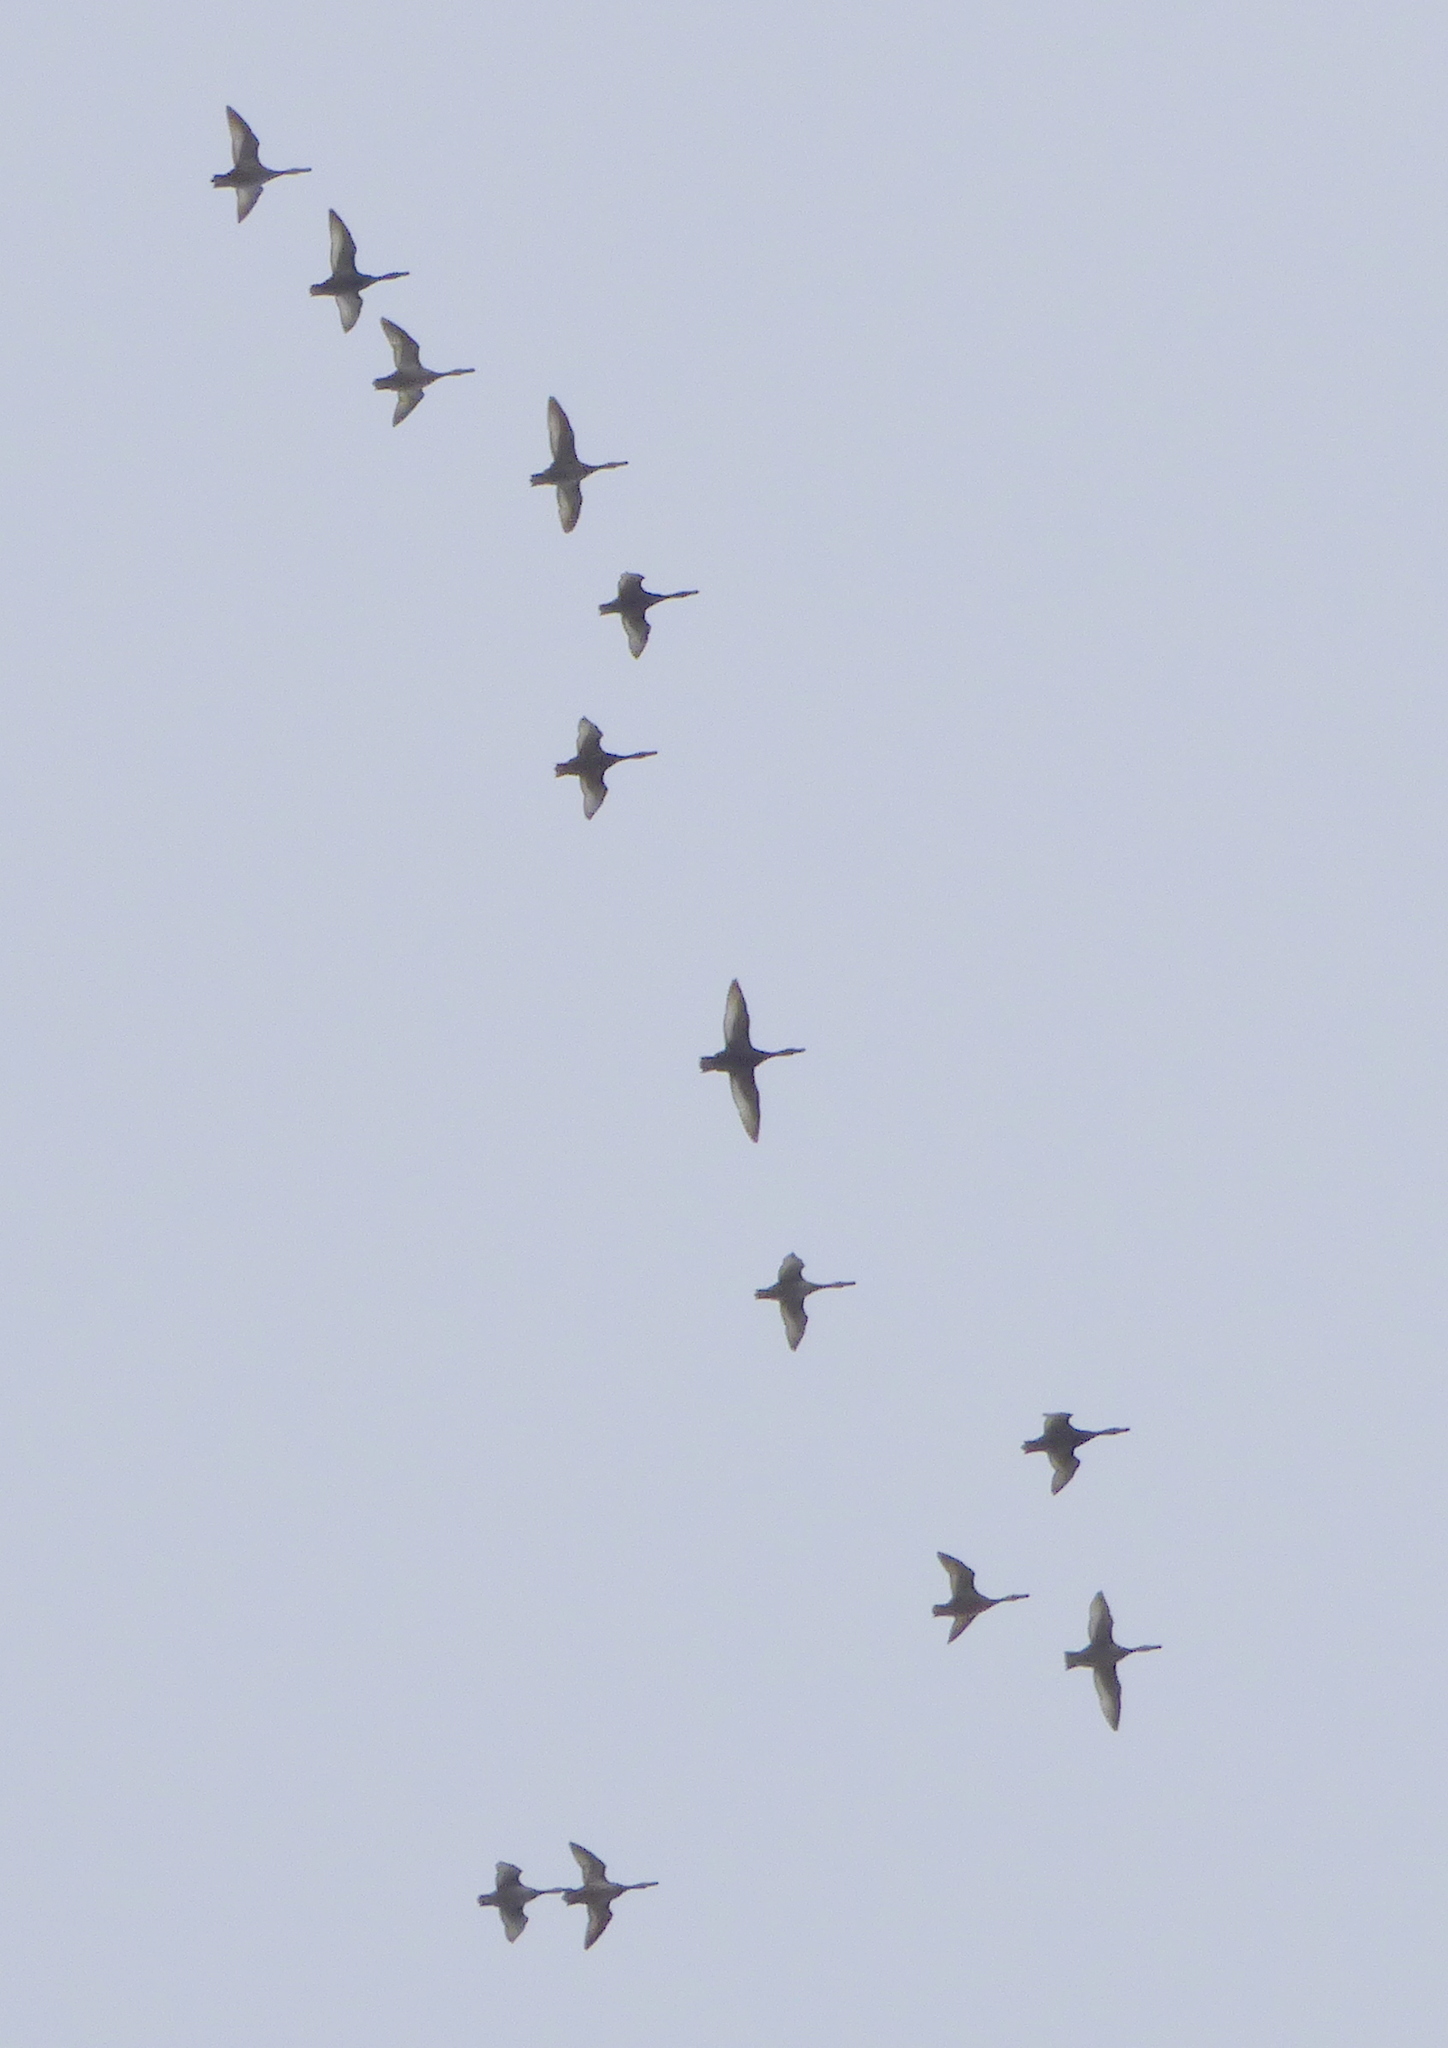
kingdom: Animalia
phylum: Chordata
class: Aves
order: Anseriformes
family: Anatidae
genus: Netta
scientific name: Netta peposaca
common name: Rosy-billed pochard
